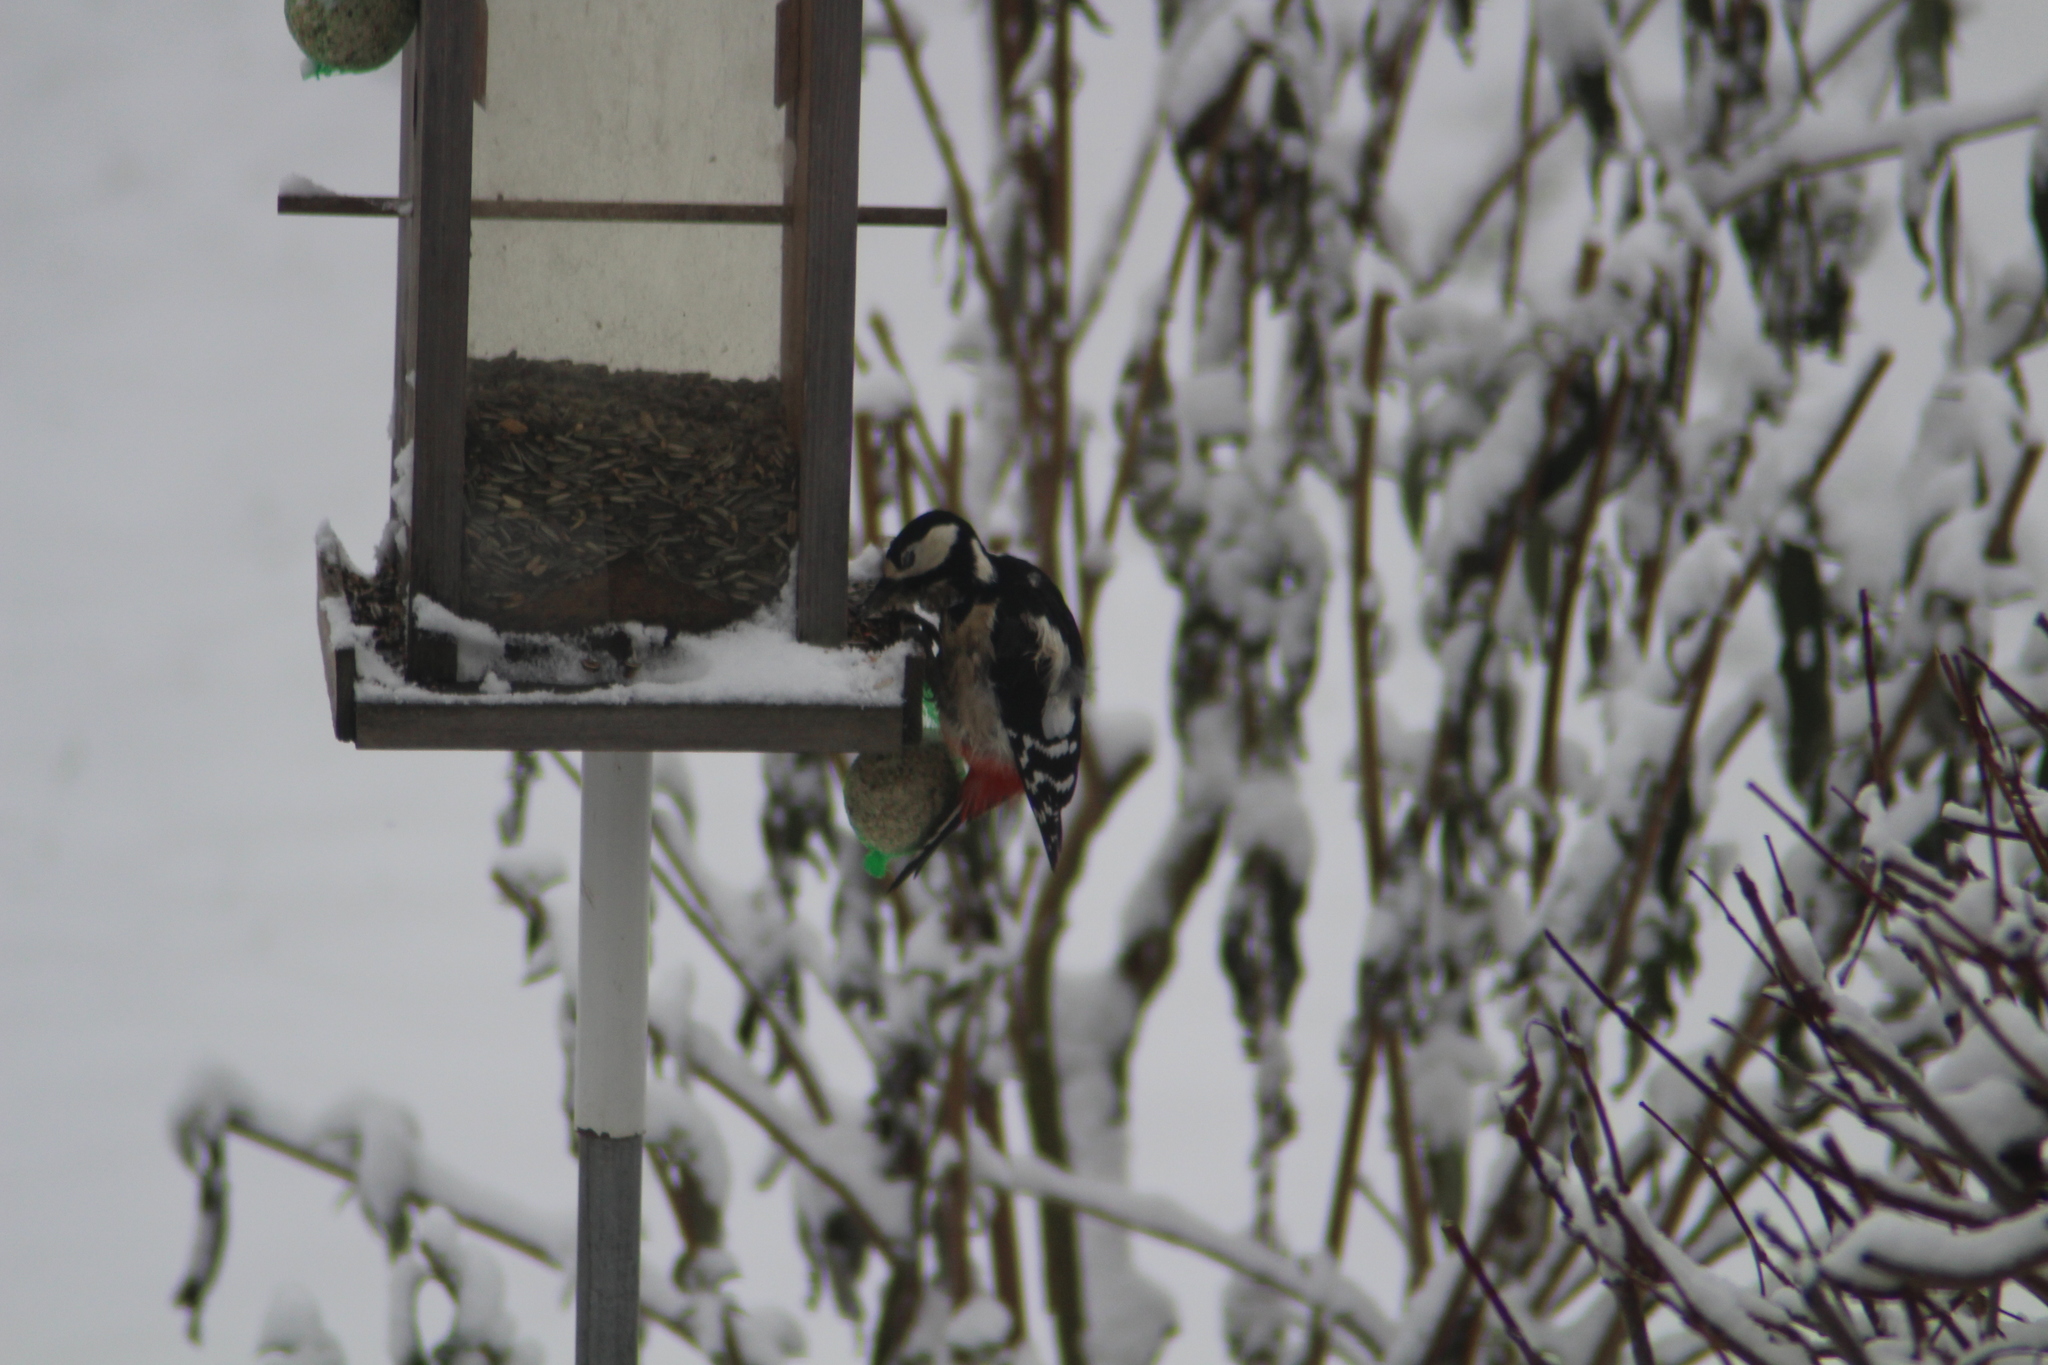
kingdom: Animalia
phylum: Chordata
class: Aves
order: Piciformes
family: Picidae
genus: Dendrocopos
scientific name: Dendrocopos major
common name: Great spotted woodpecker
